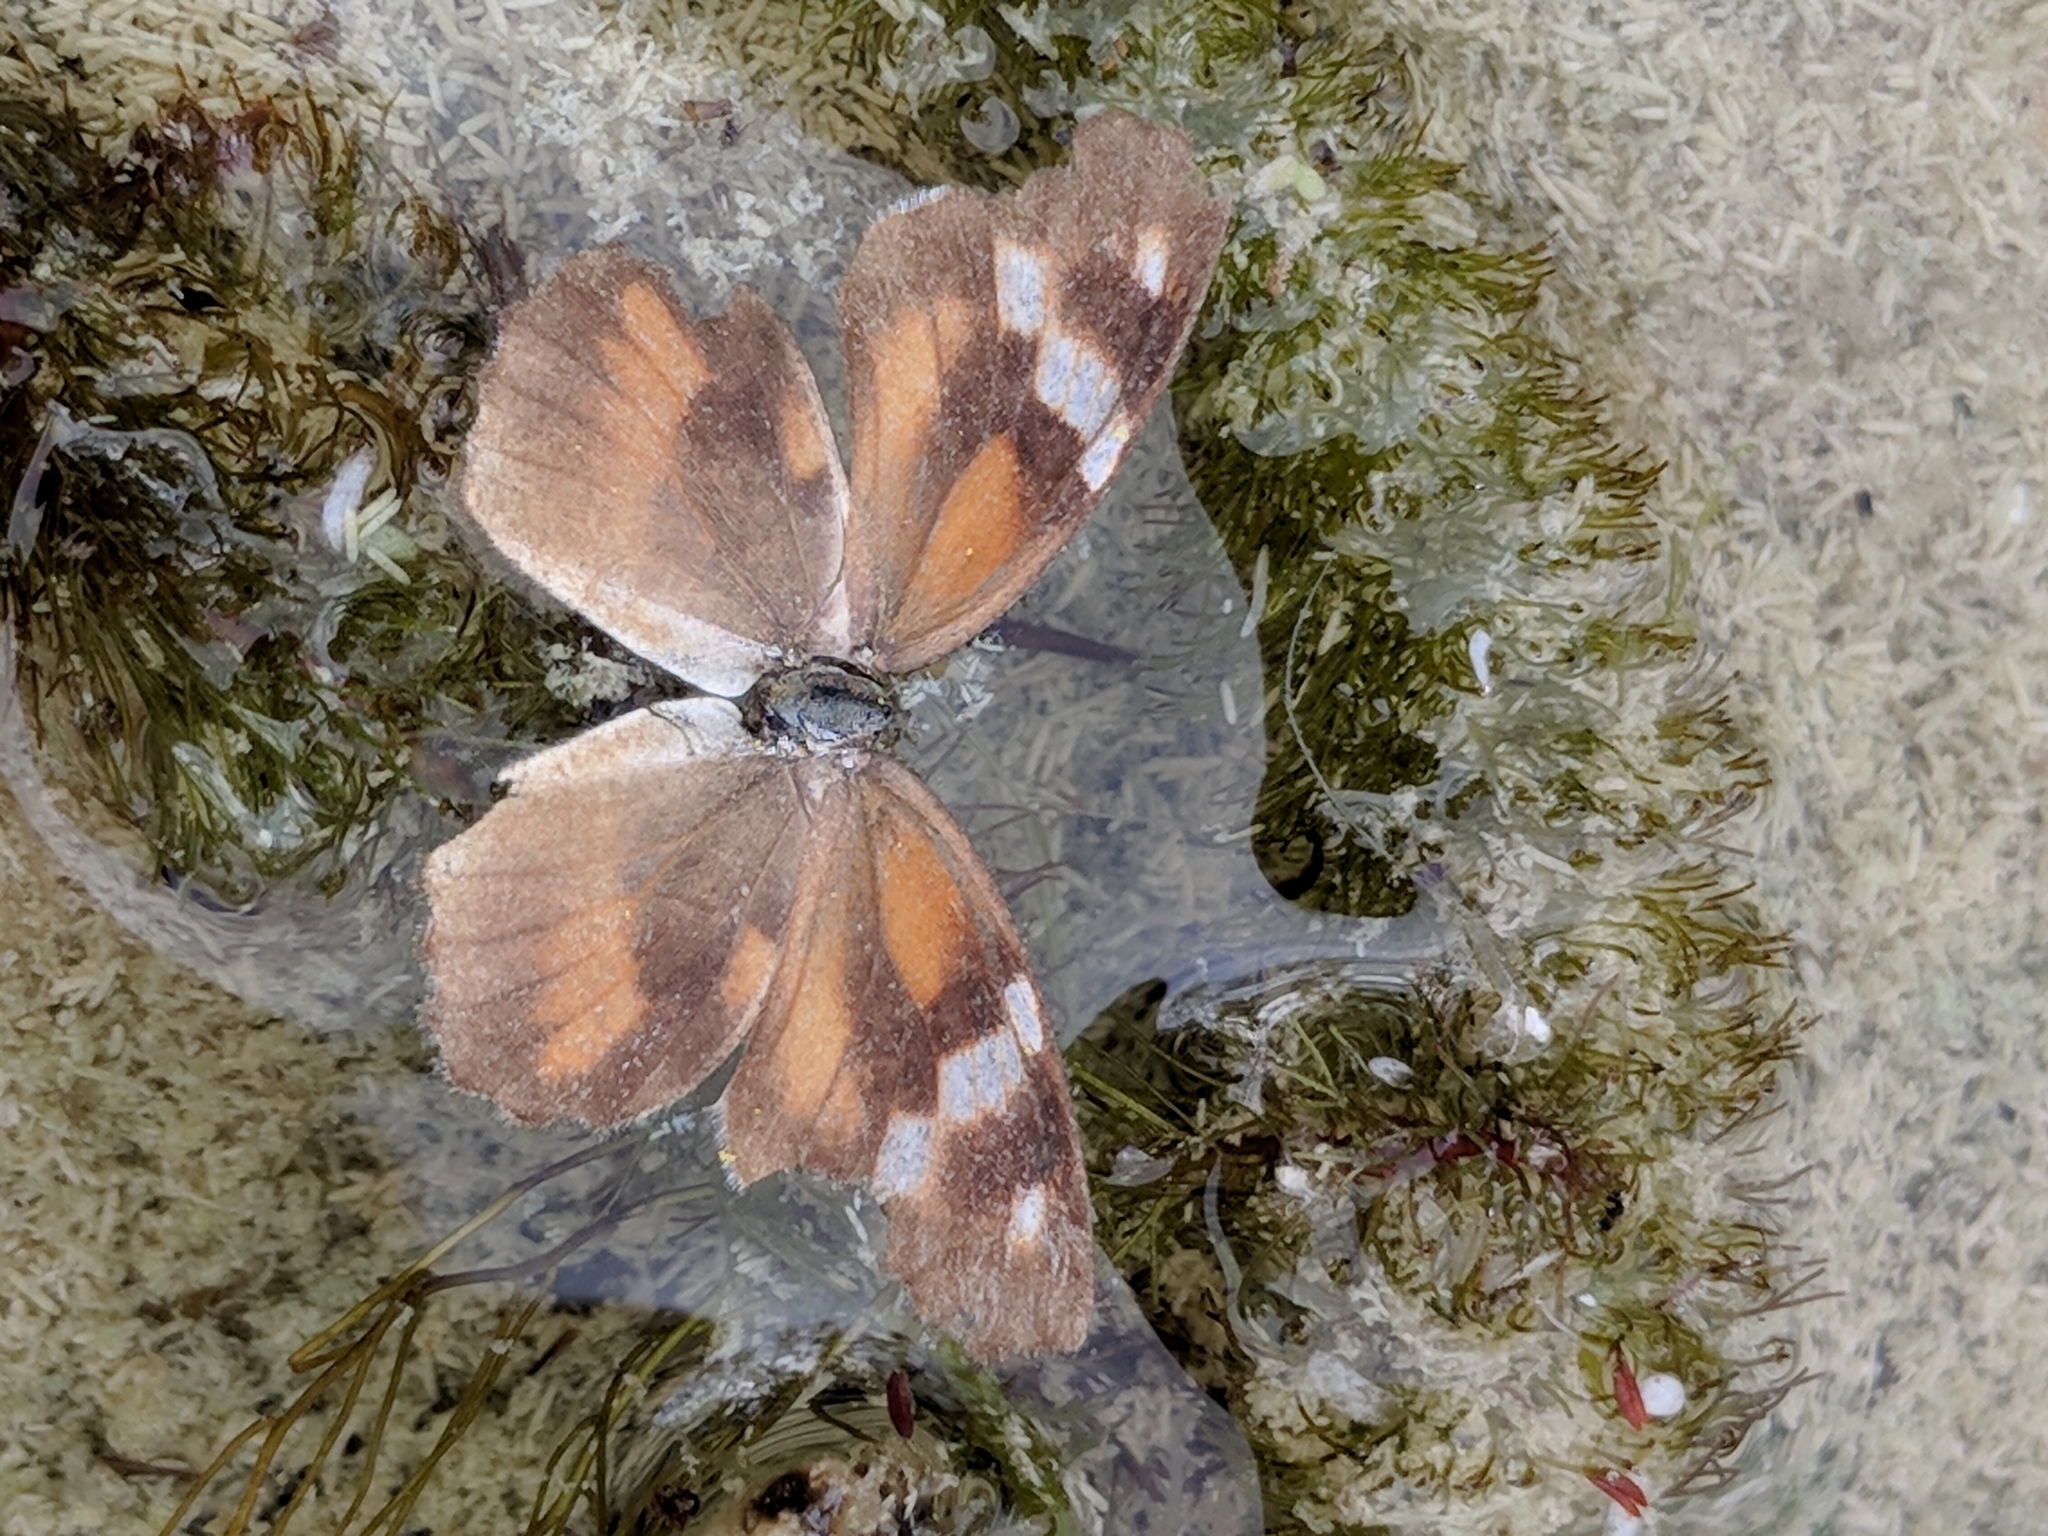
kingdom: Animalia
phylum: Arthropoda
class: Insecta
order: Lepidoptera
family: Nymphalidae
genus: Libytheana
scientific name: Libytheana carinenta
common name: American snout
